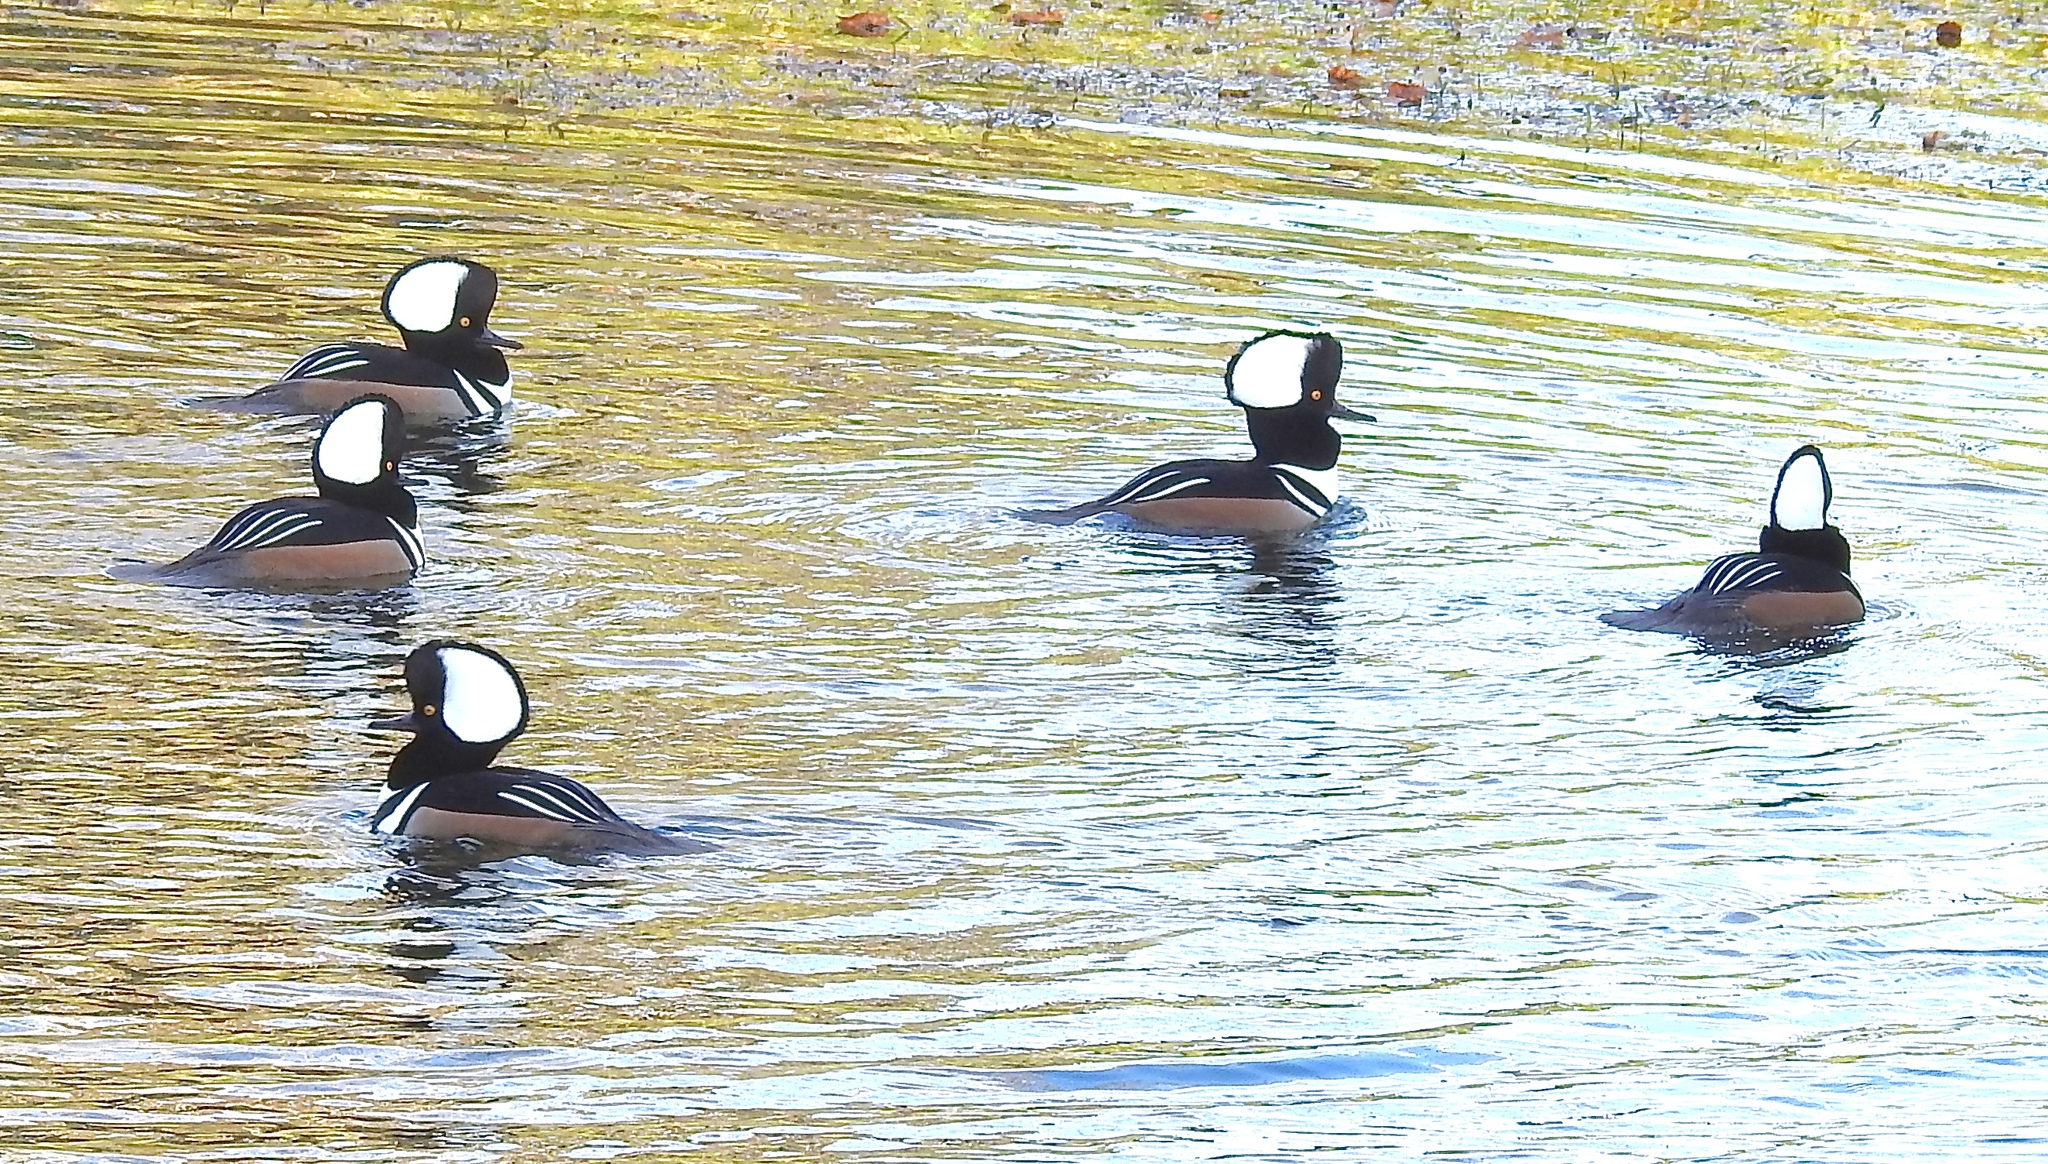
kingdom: Animalia
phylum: Chordata
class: Aves
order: Anseriformes
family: Anatidae
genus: Lophodytes
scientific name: Lophodytes cucullatus
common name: Hooded merganser
